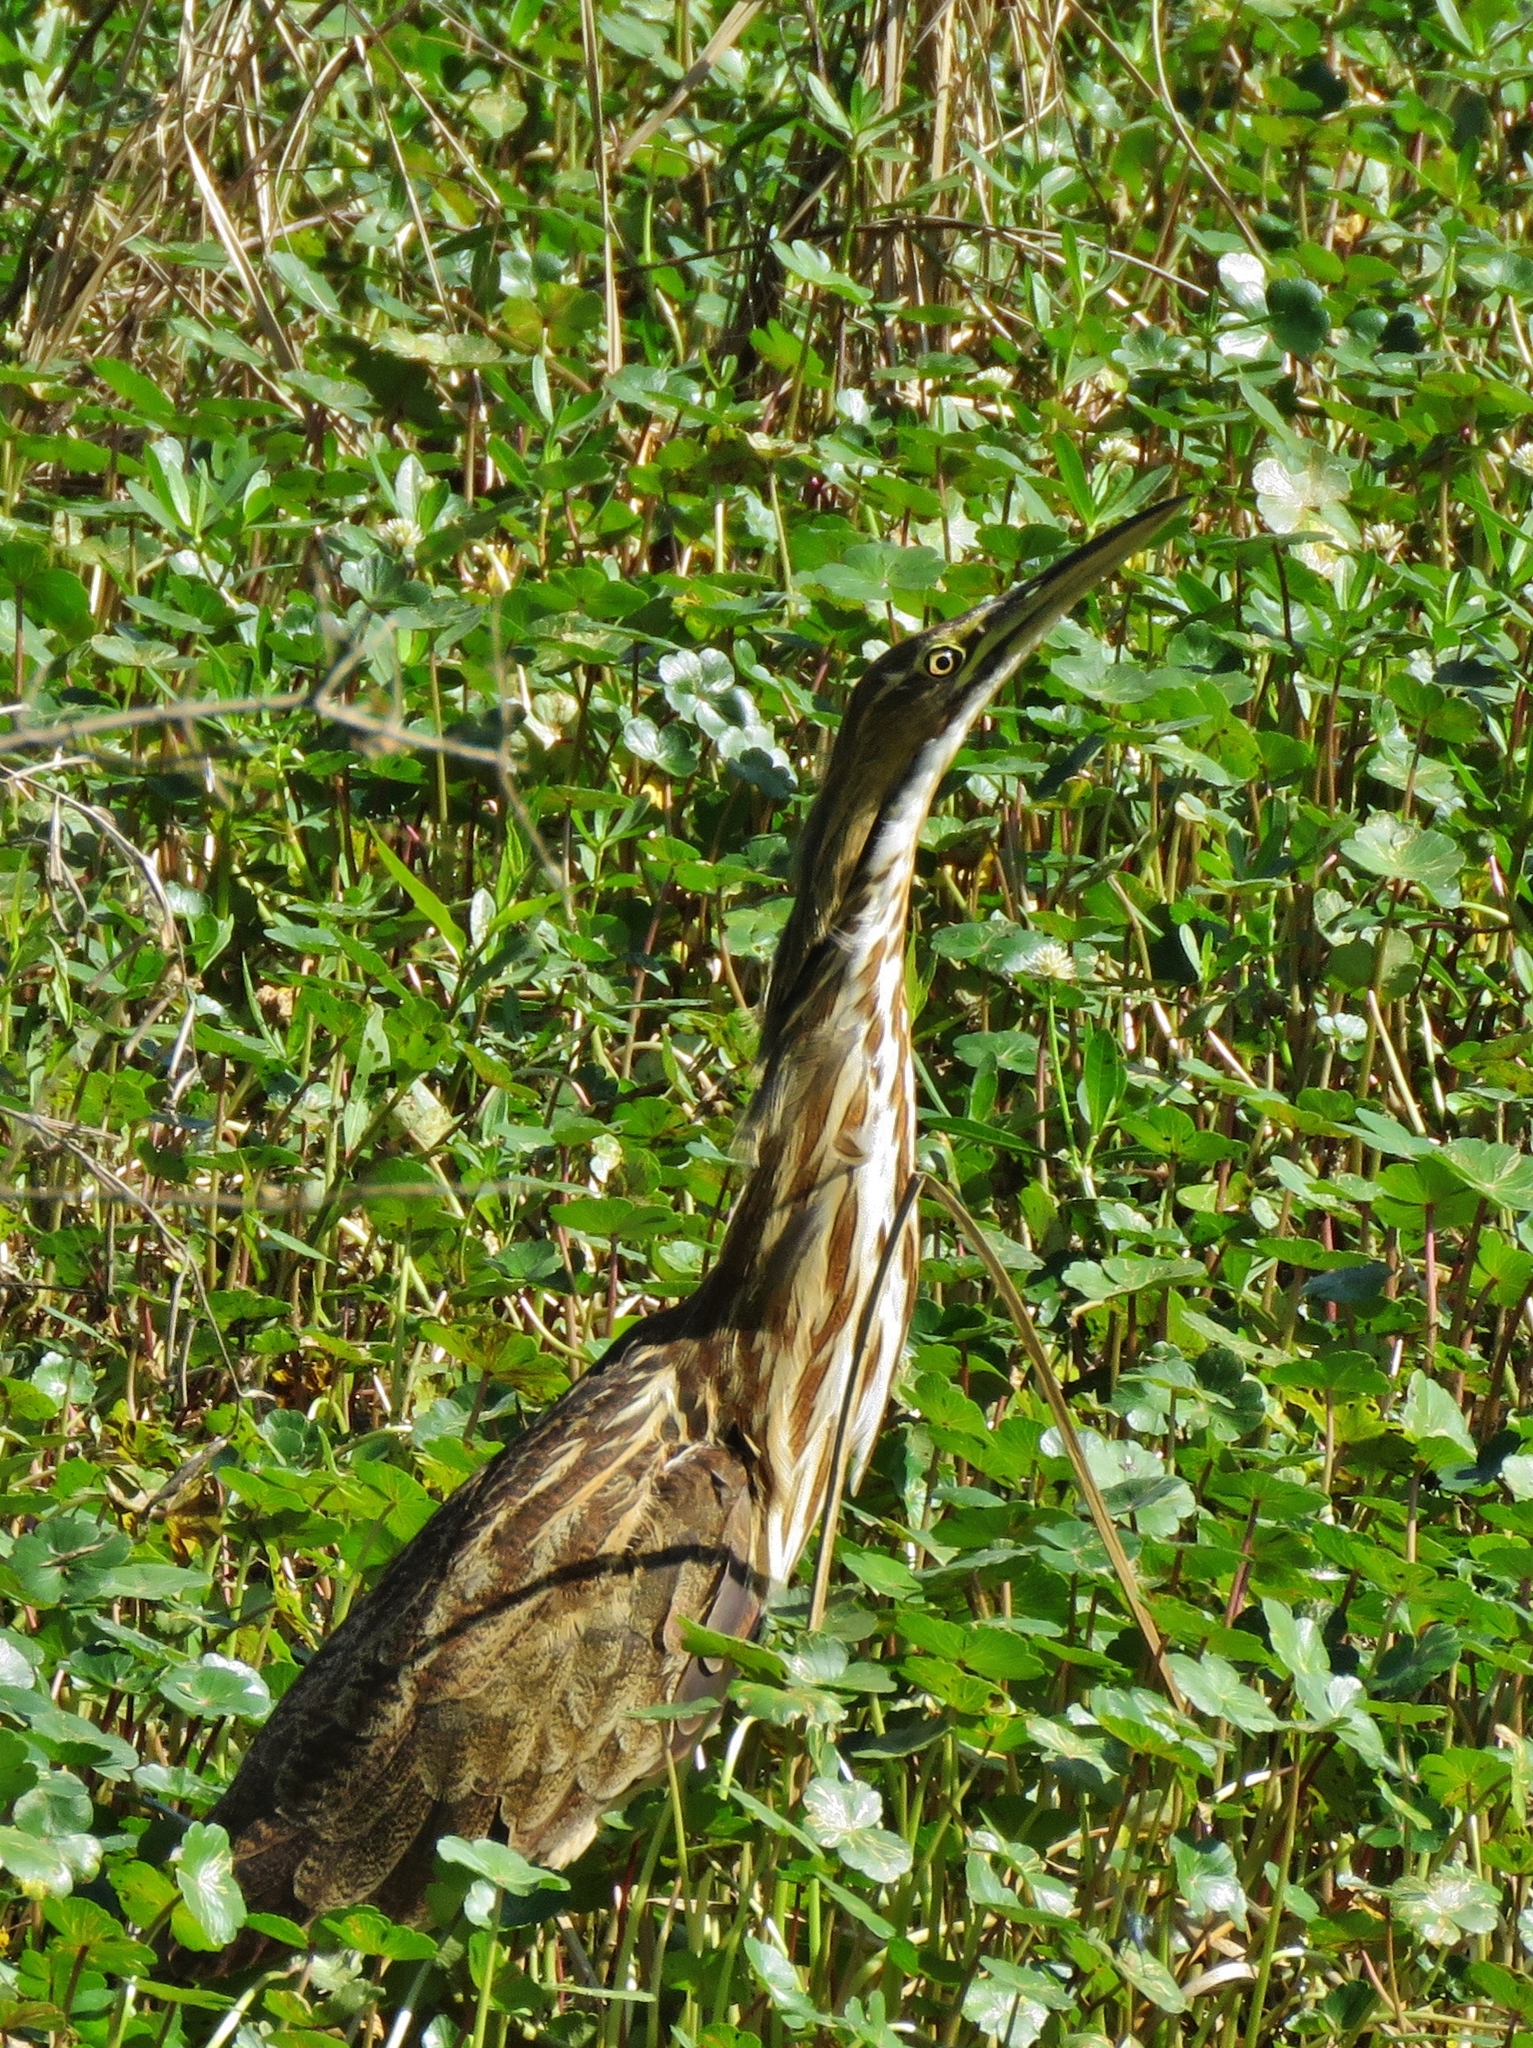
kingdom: Animalia
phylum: Chordata
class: Aves
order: Pelecaniformes
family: Ardeidae
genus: Botaurus
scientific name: Botaurus lentiginosus
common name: American bittern
